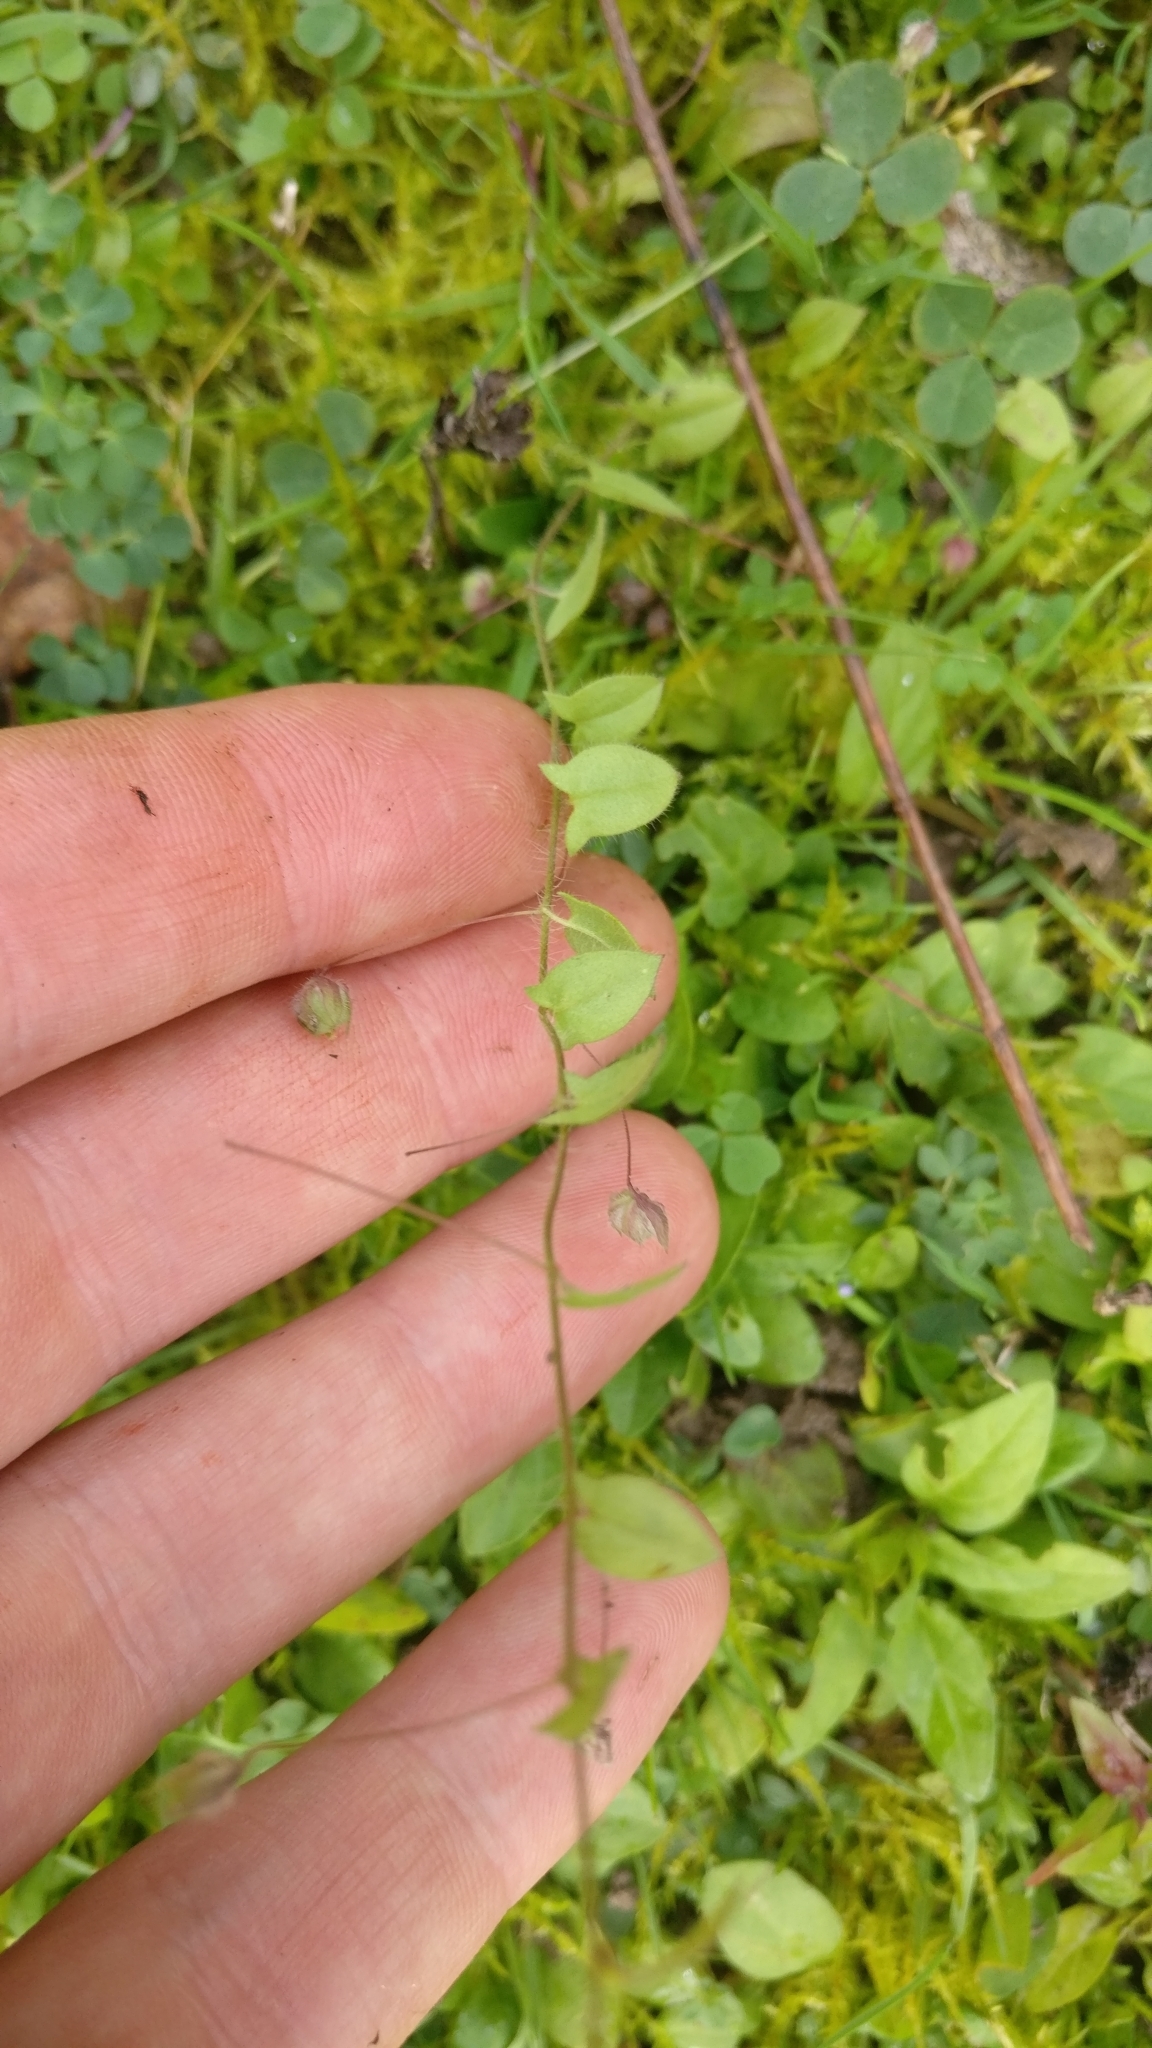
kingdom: Plantae
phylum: Tracheophyta
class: Magnoliopsida
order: Lamiales
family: Plantaginaceae
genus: Kickxia
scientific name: Kickxia elatine
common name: Sharp-leaved fluellen
